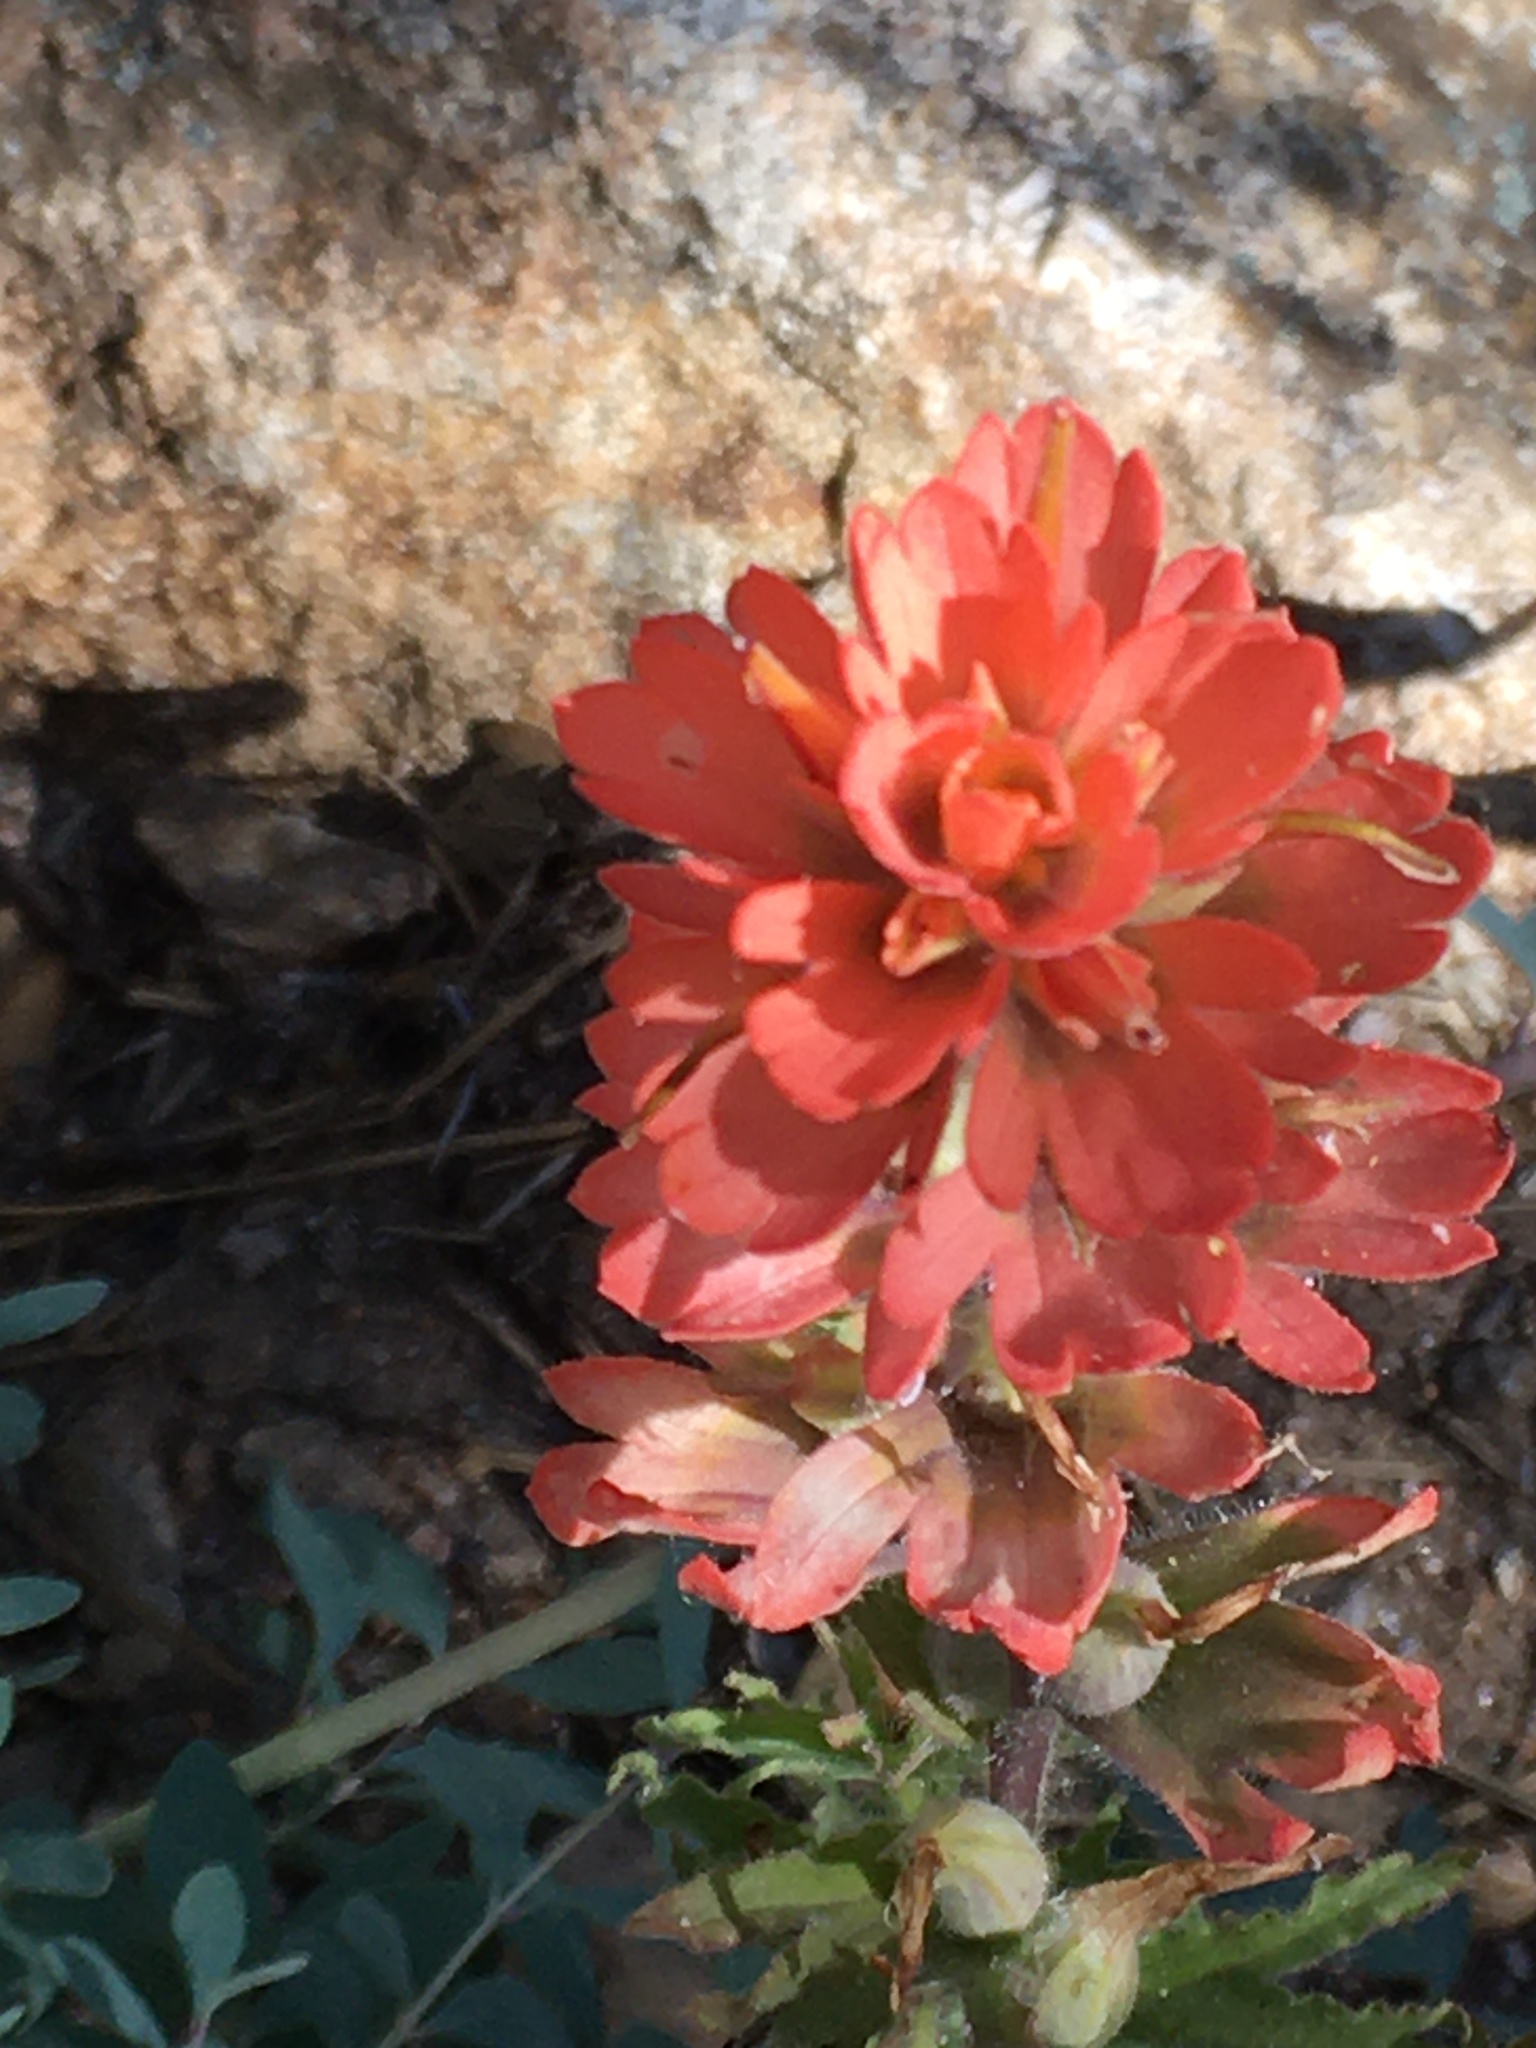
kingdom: Plantae
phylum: Tracheophyta
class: Magnoliopsida
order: Lamiales
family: Orobanchaceae
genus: Castilleja
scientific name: Castilleja martini
